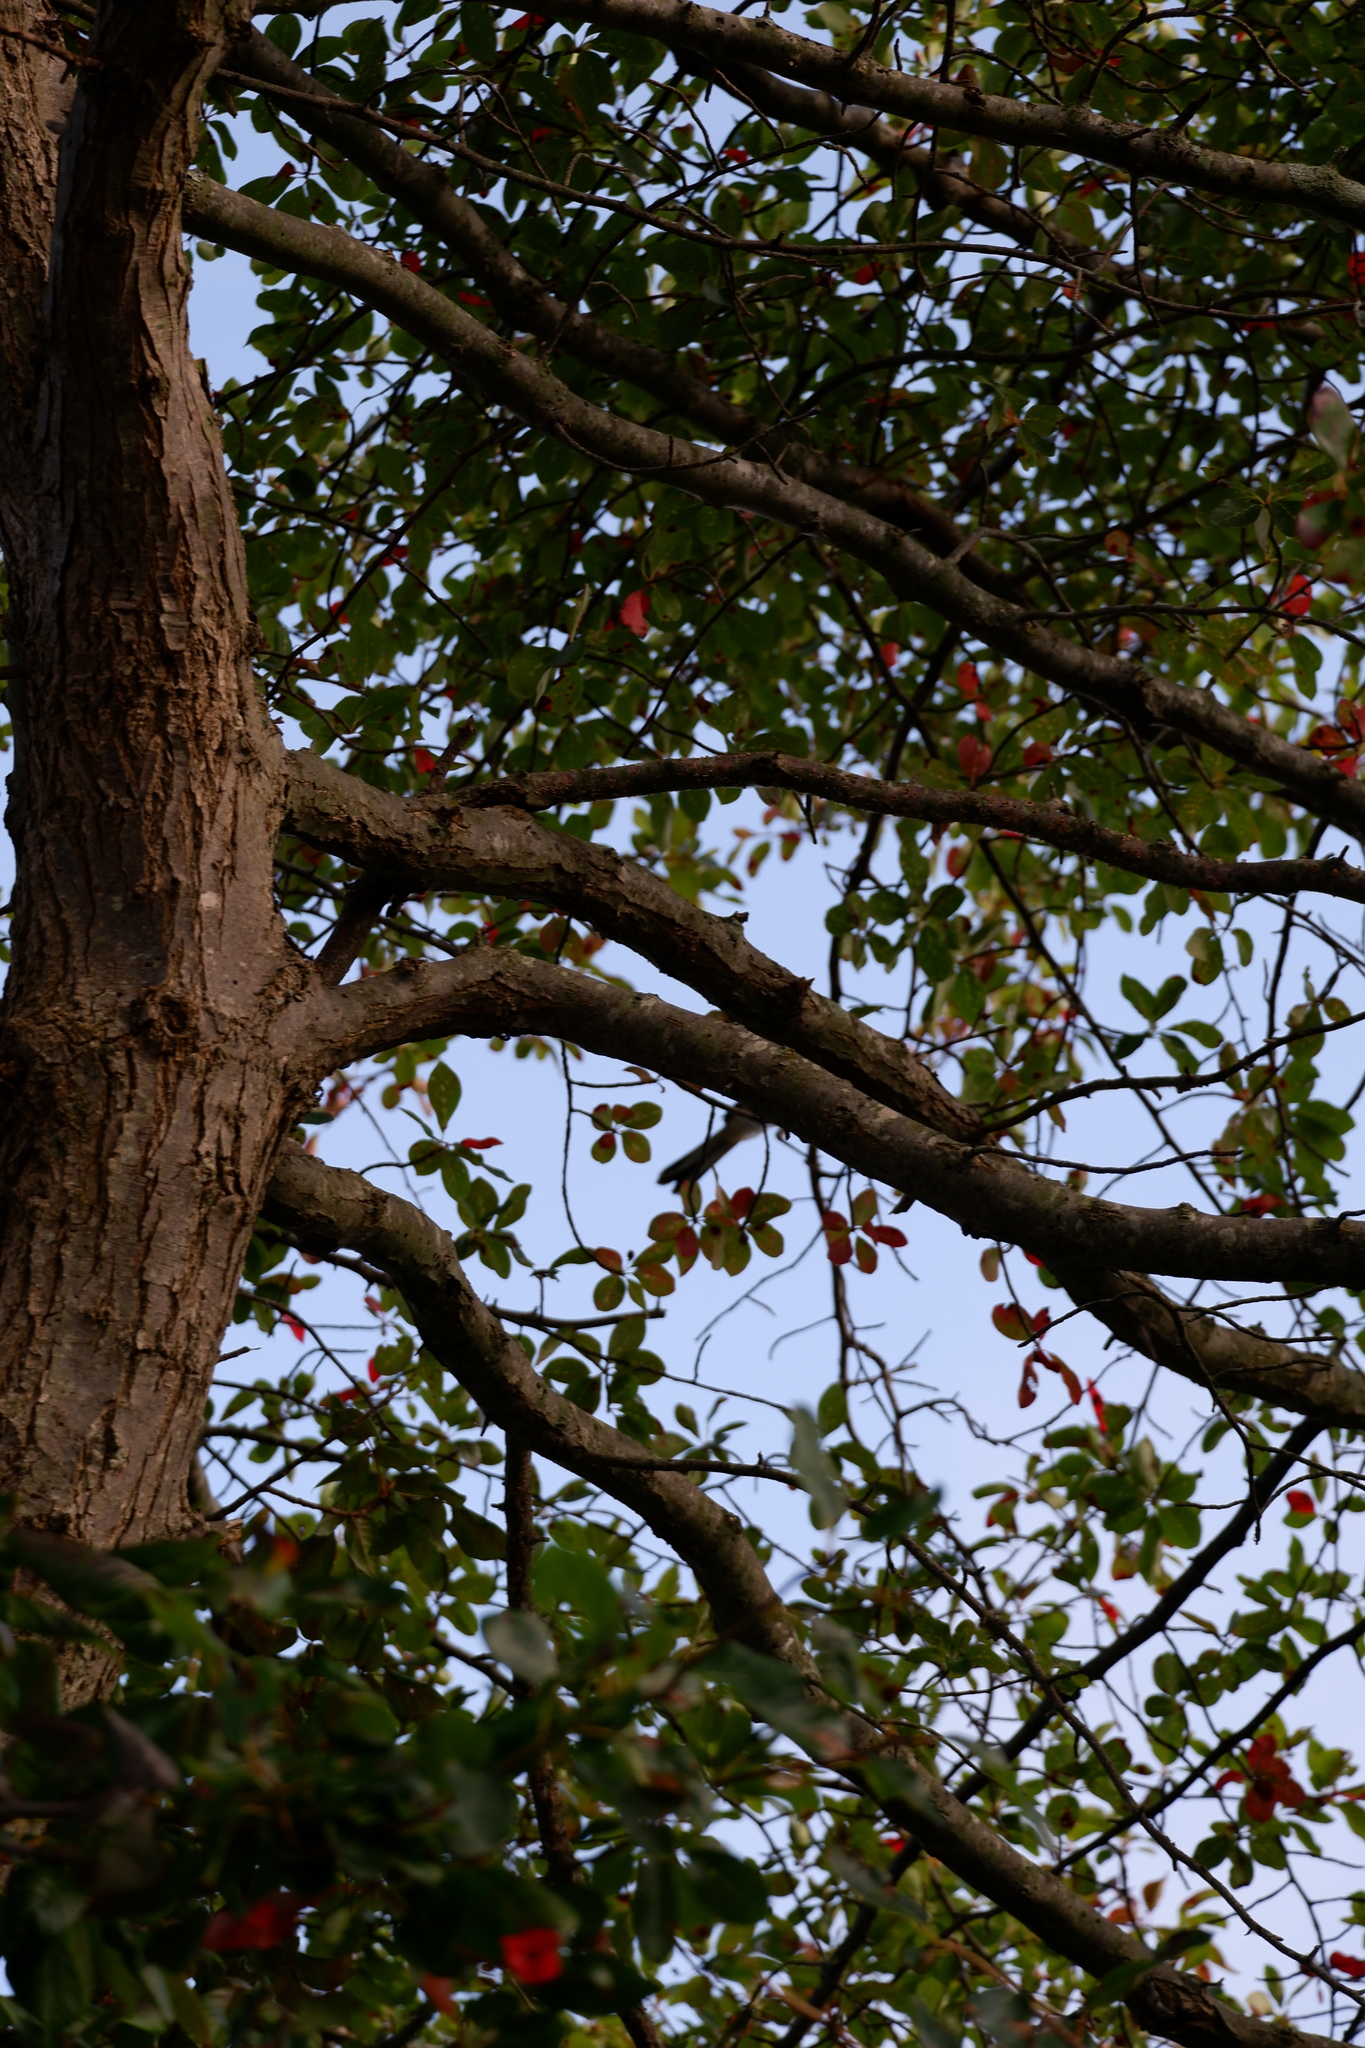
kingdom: Plantae
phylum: Tracheophyta
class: Magnoliopsida
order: Cornales
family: Nyssaceae
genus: Nyssa
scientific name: Nyssa sylvatica
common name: Black tupelo
